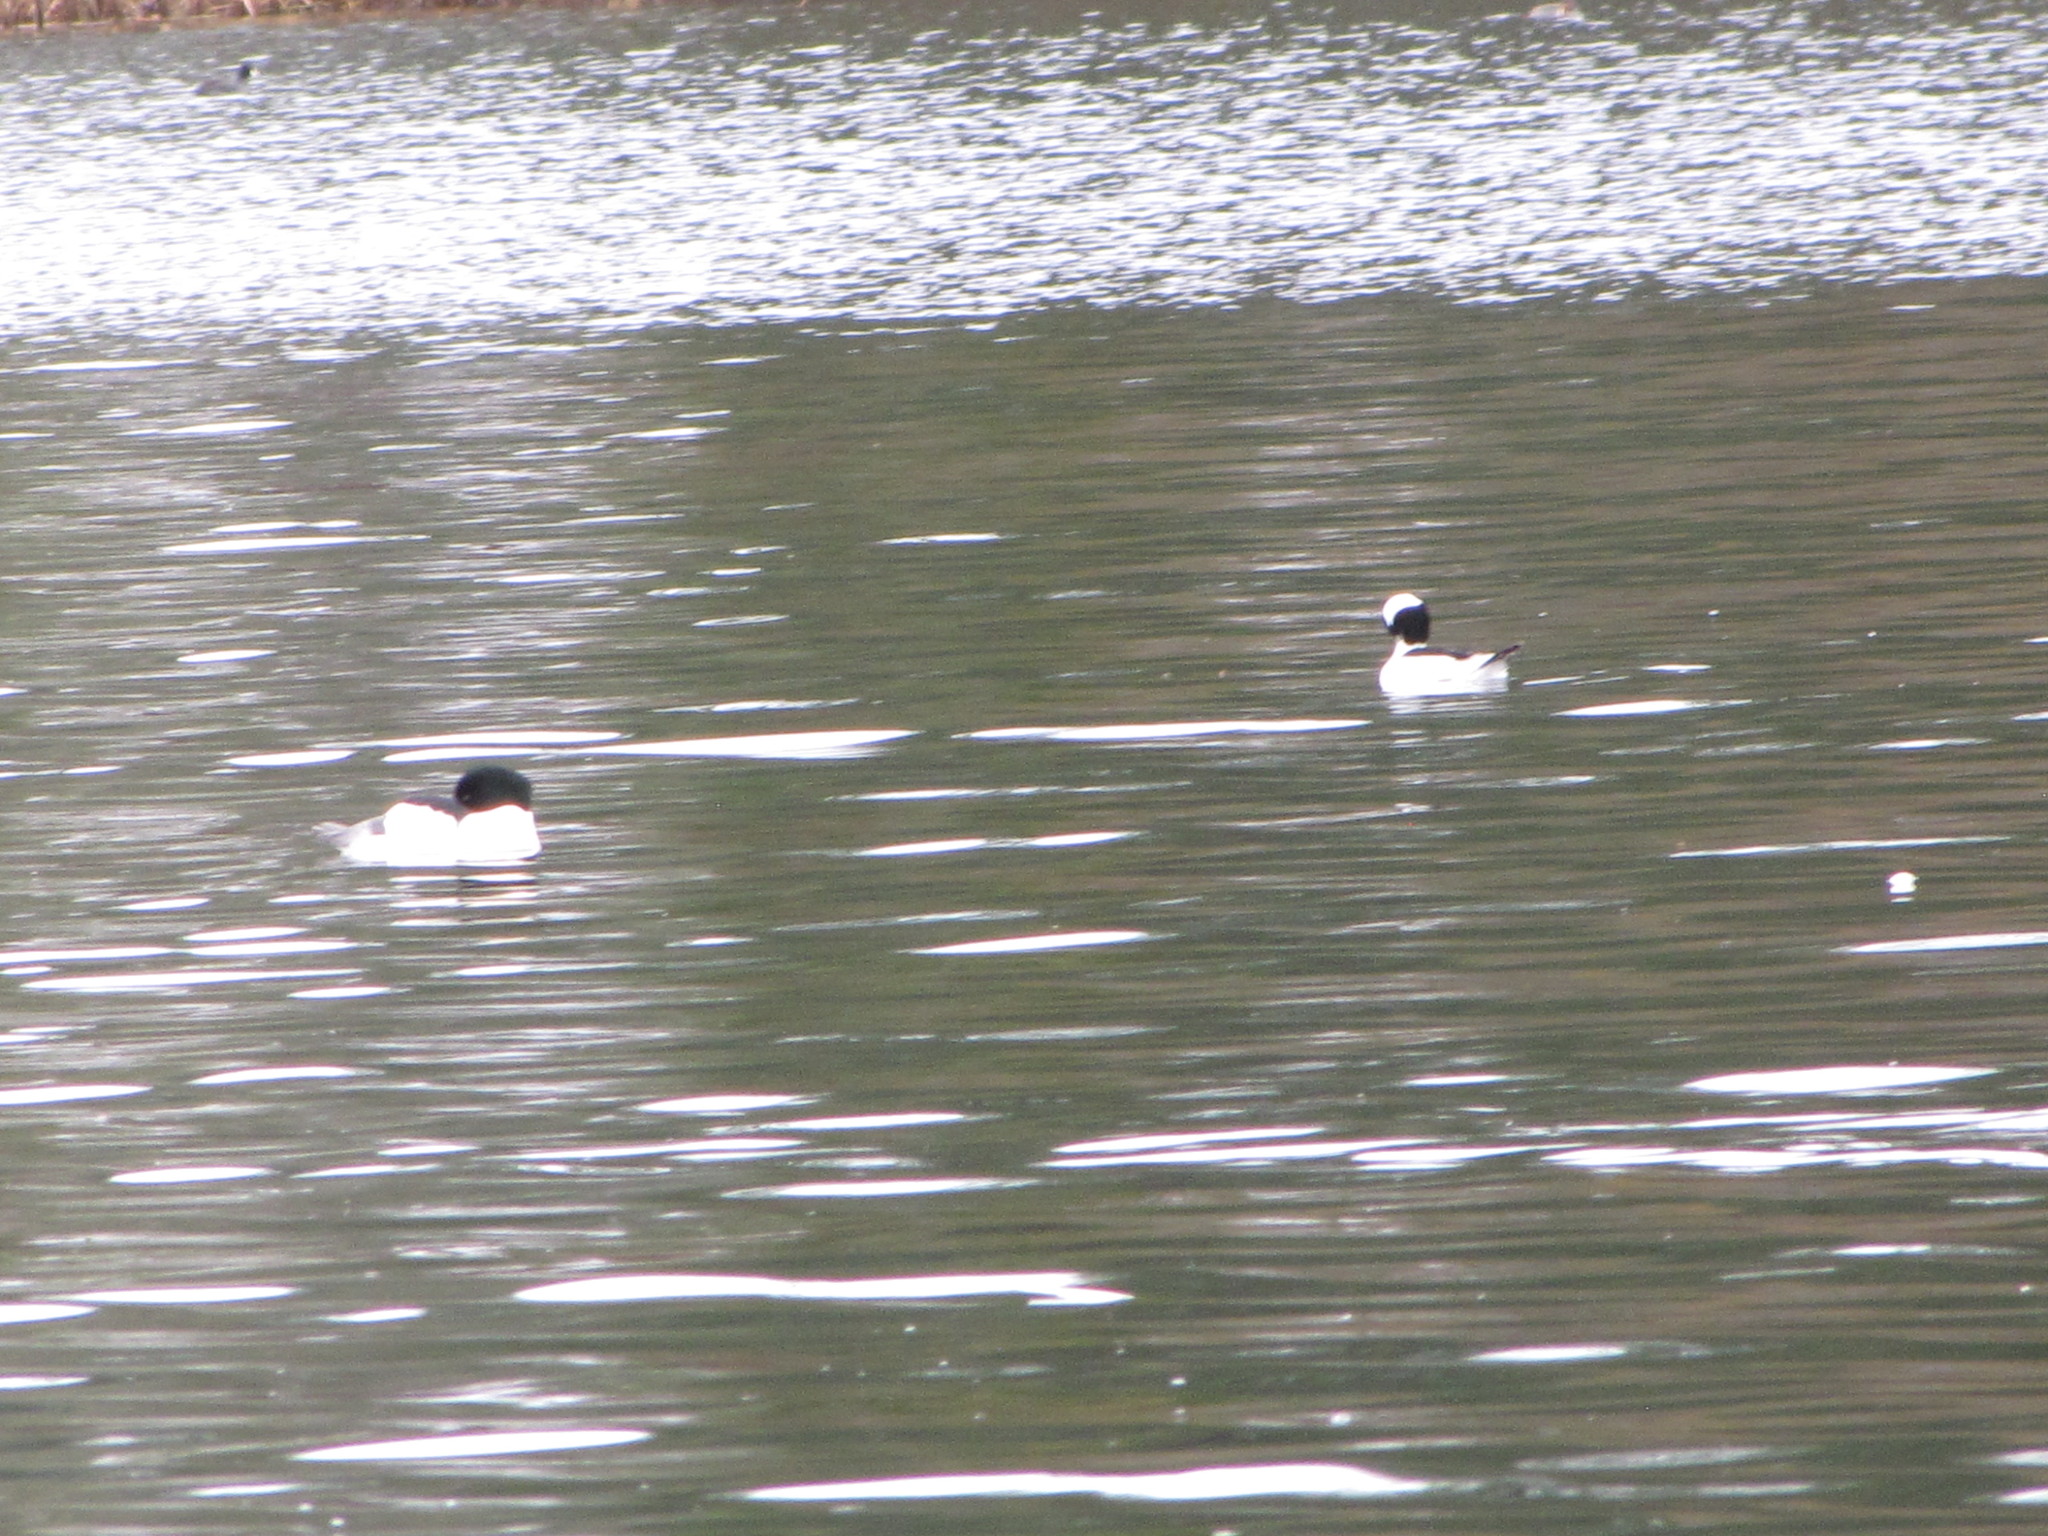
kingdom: Animalia
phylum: Chordata
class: Aves
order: Anseriformes
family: Anatidae
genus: Bucephala
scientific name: Bucephala albeola
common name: Bufflehead
